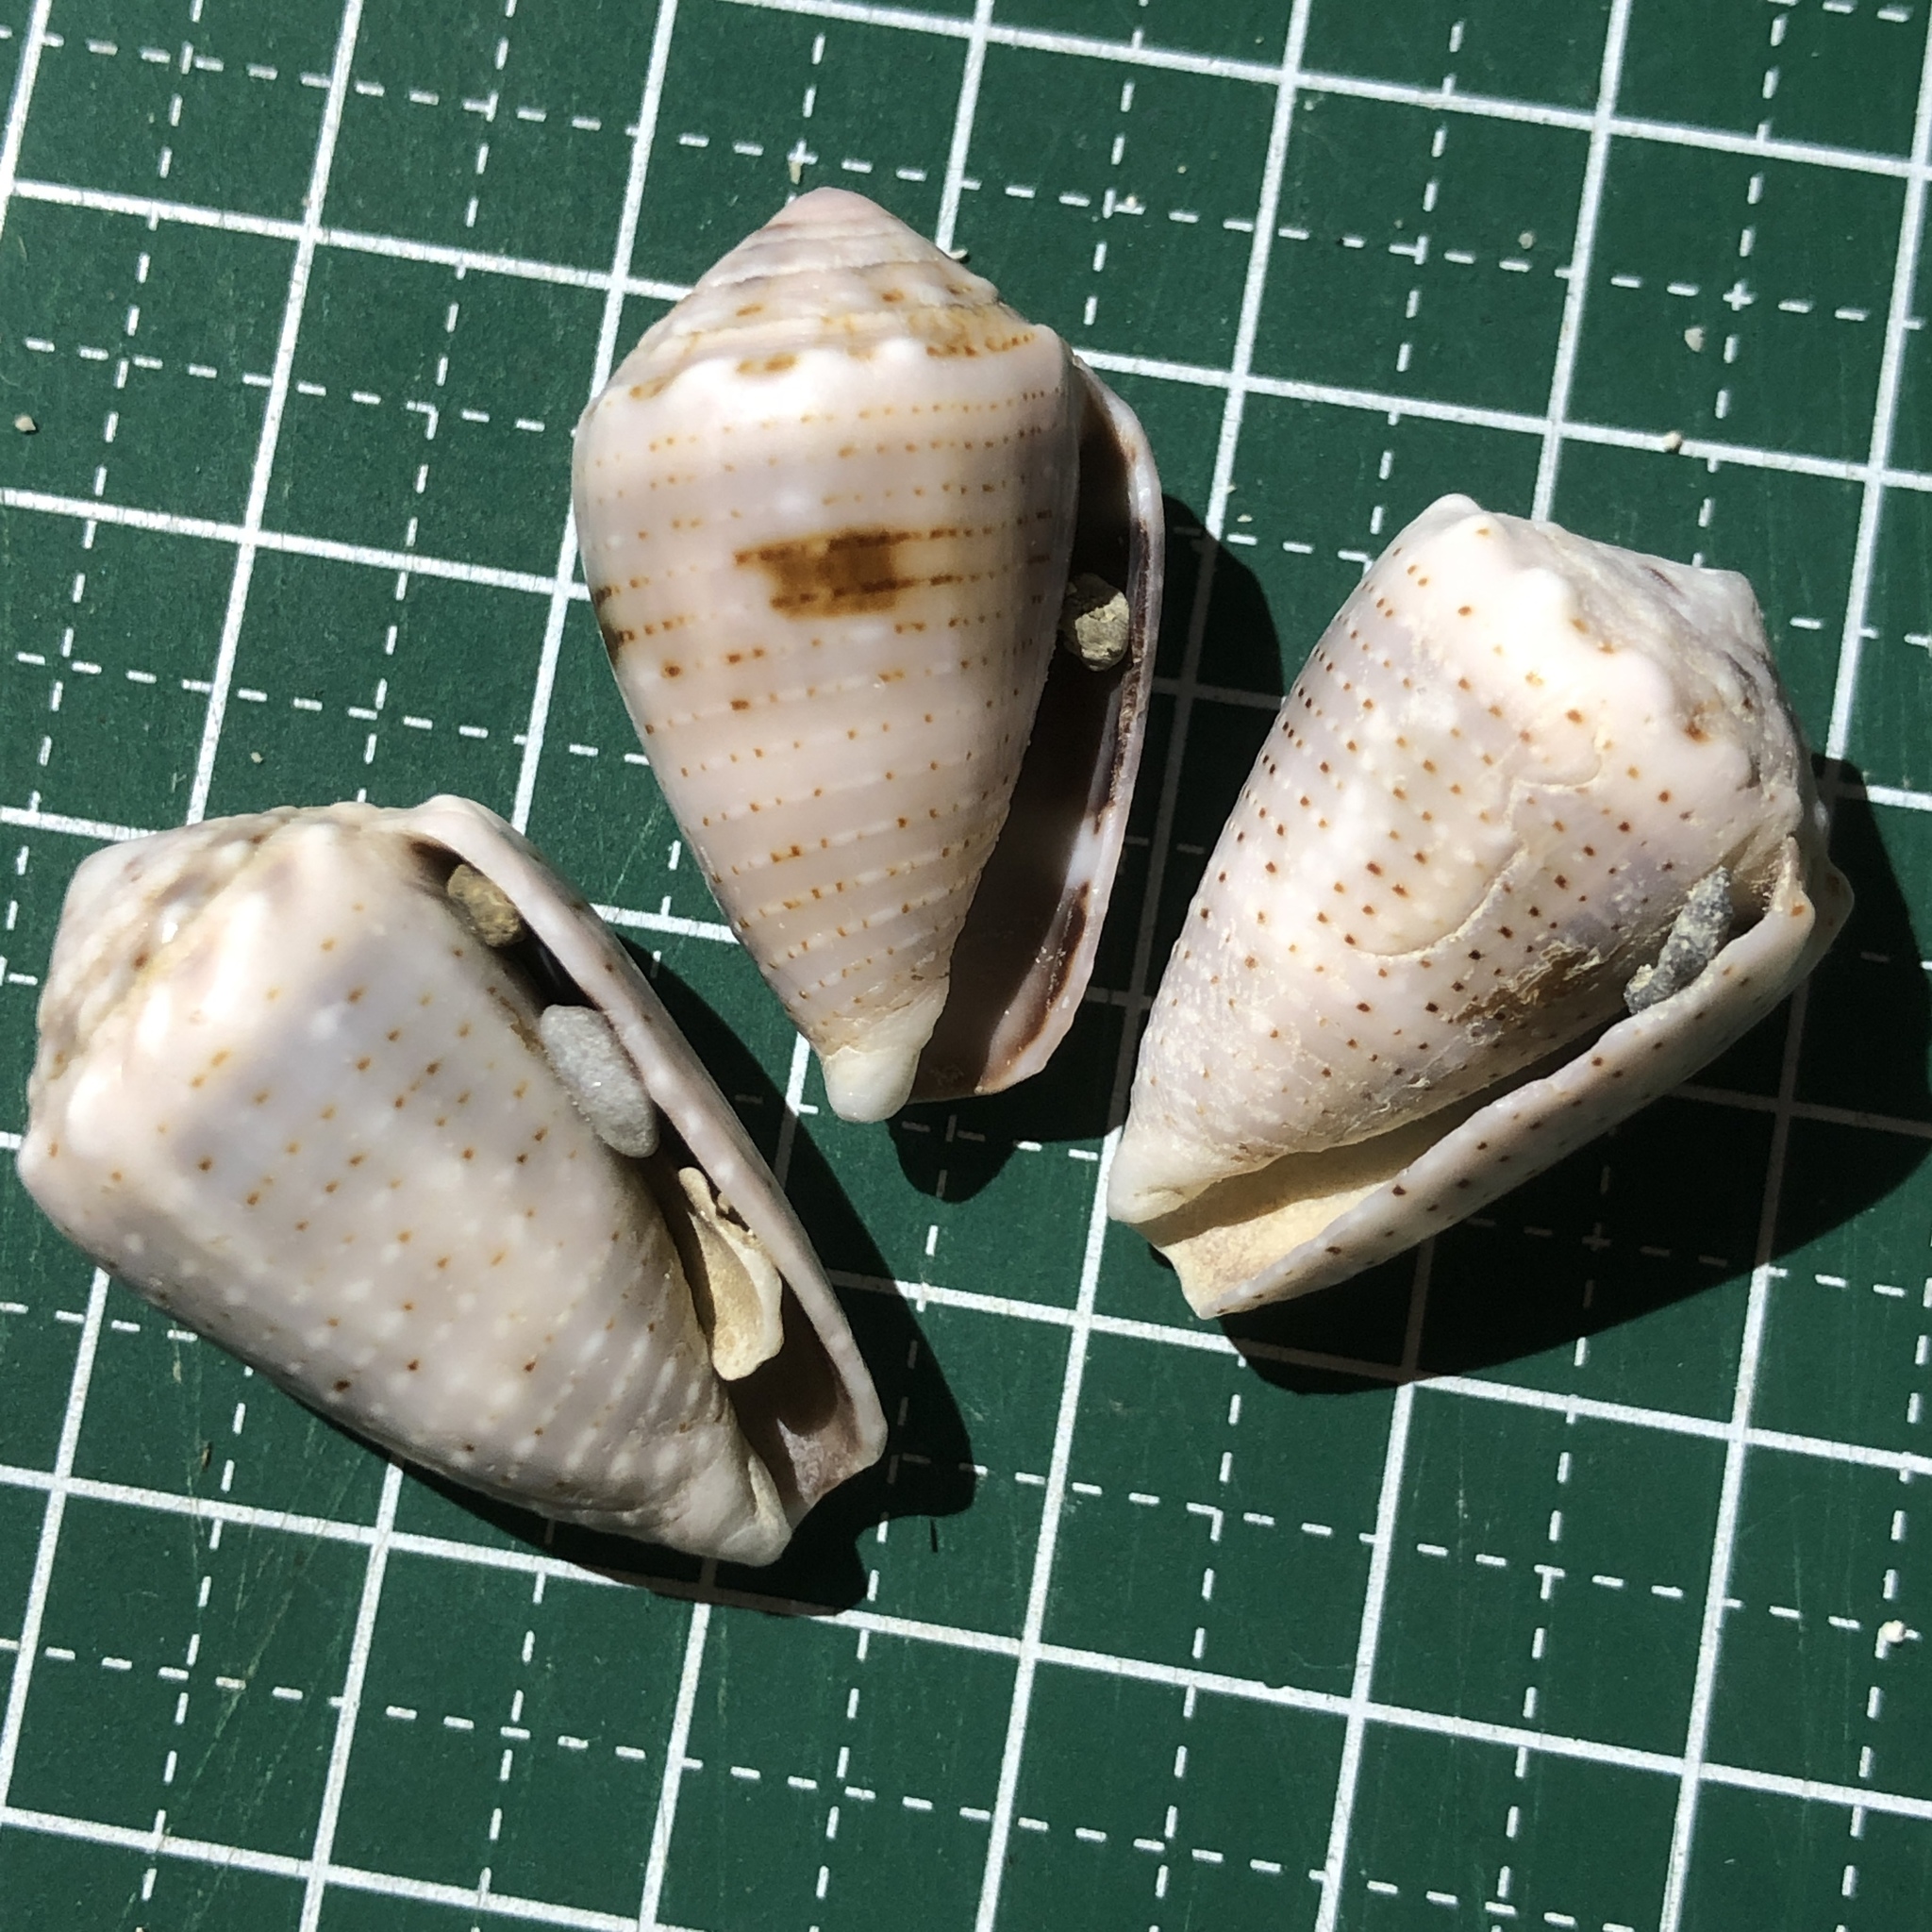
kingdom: Animalia
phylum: Mollusca
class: Gastropoda
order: Neogastropoda
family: Conidae
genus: Conus
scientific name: Conus coronatus
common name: Coronated cone
